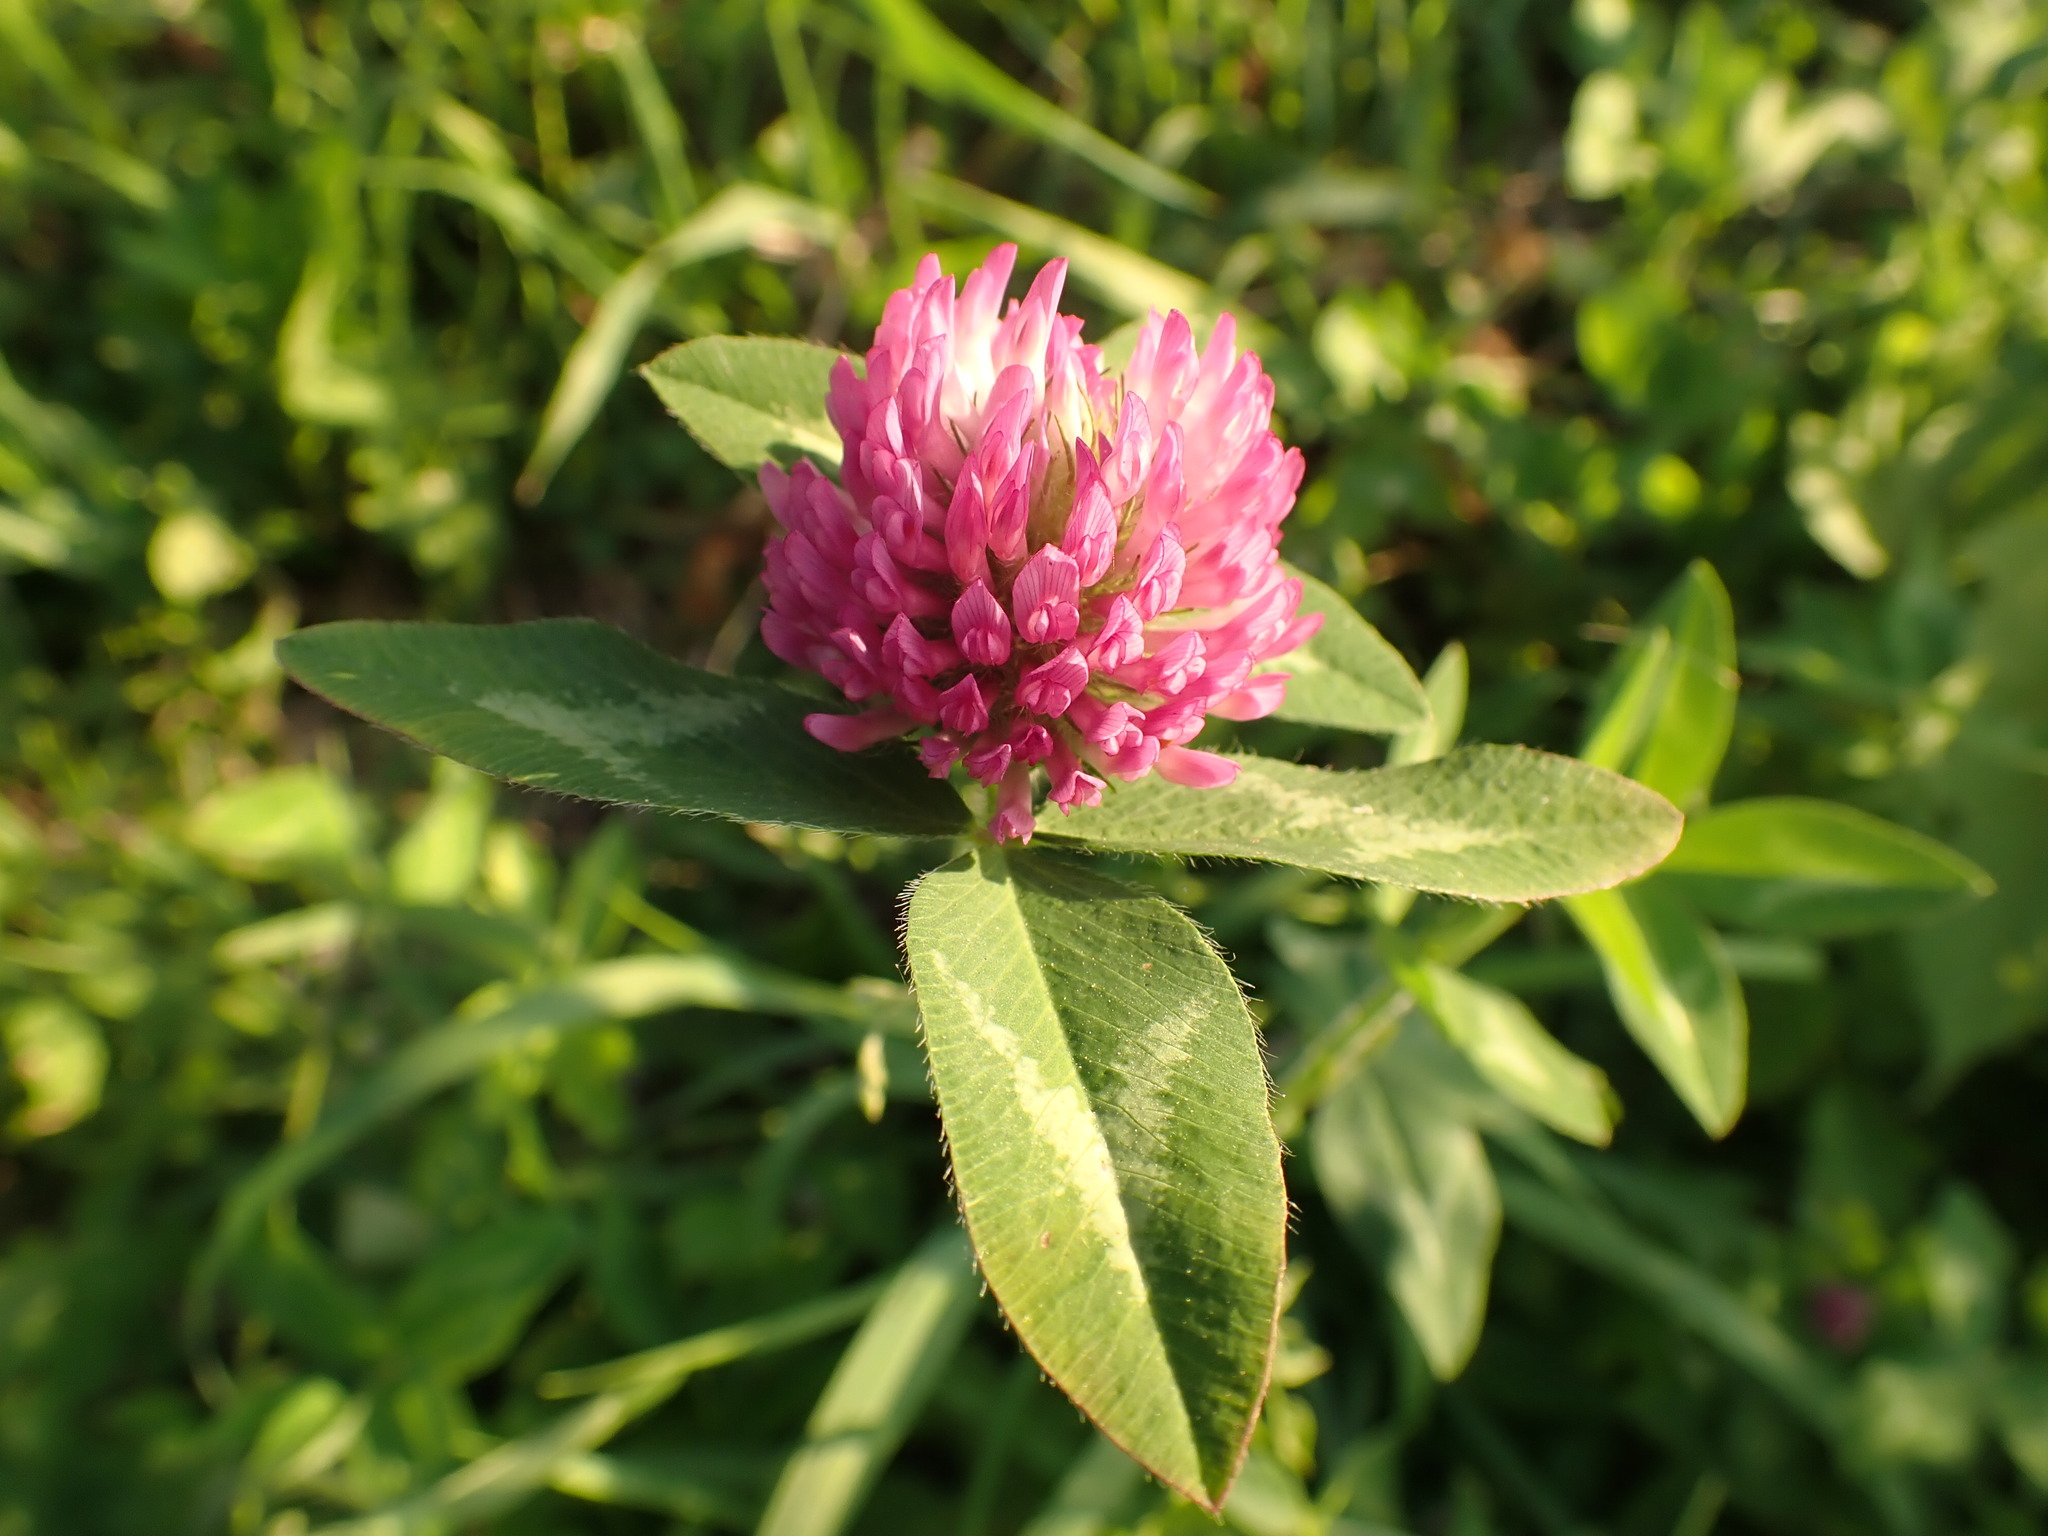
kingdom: Plantae
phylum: Tracheophyta
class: Magnoliopsida
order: Fabales
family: Fabaceae
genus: Trifolium
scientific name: Trifolium pratense
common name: Red clover
